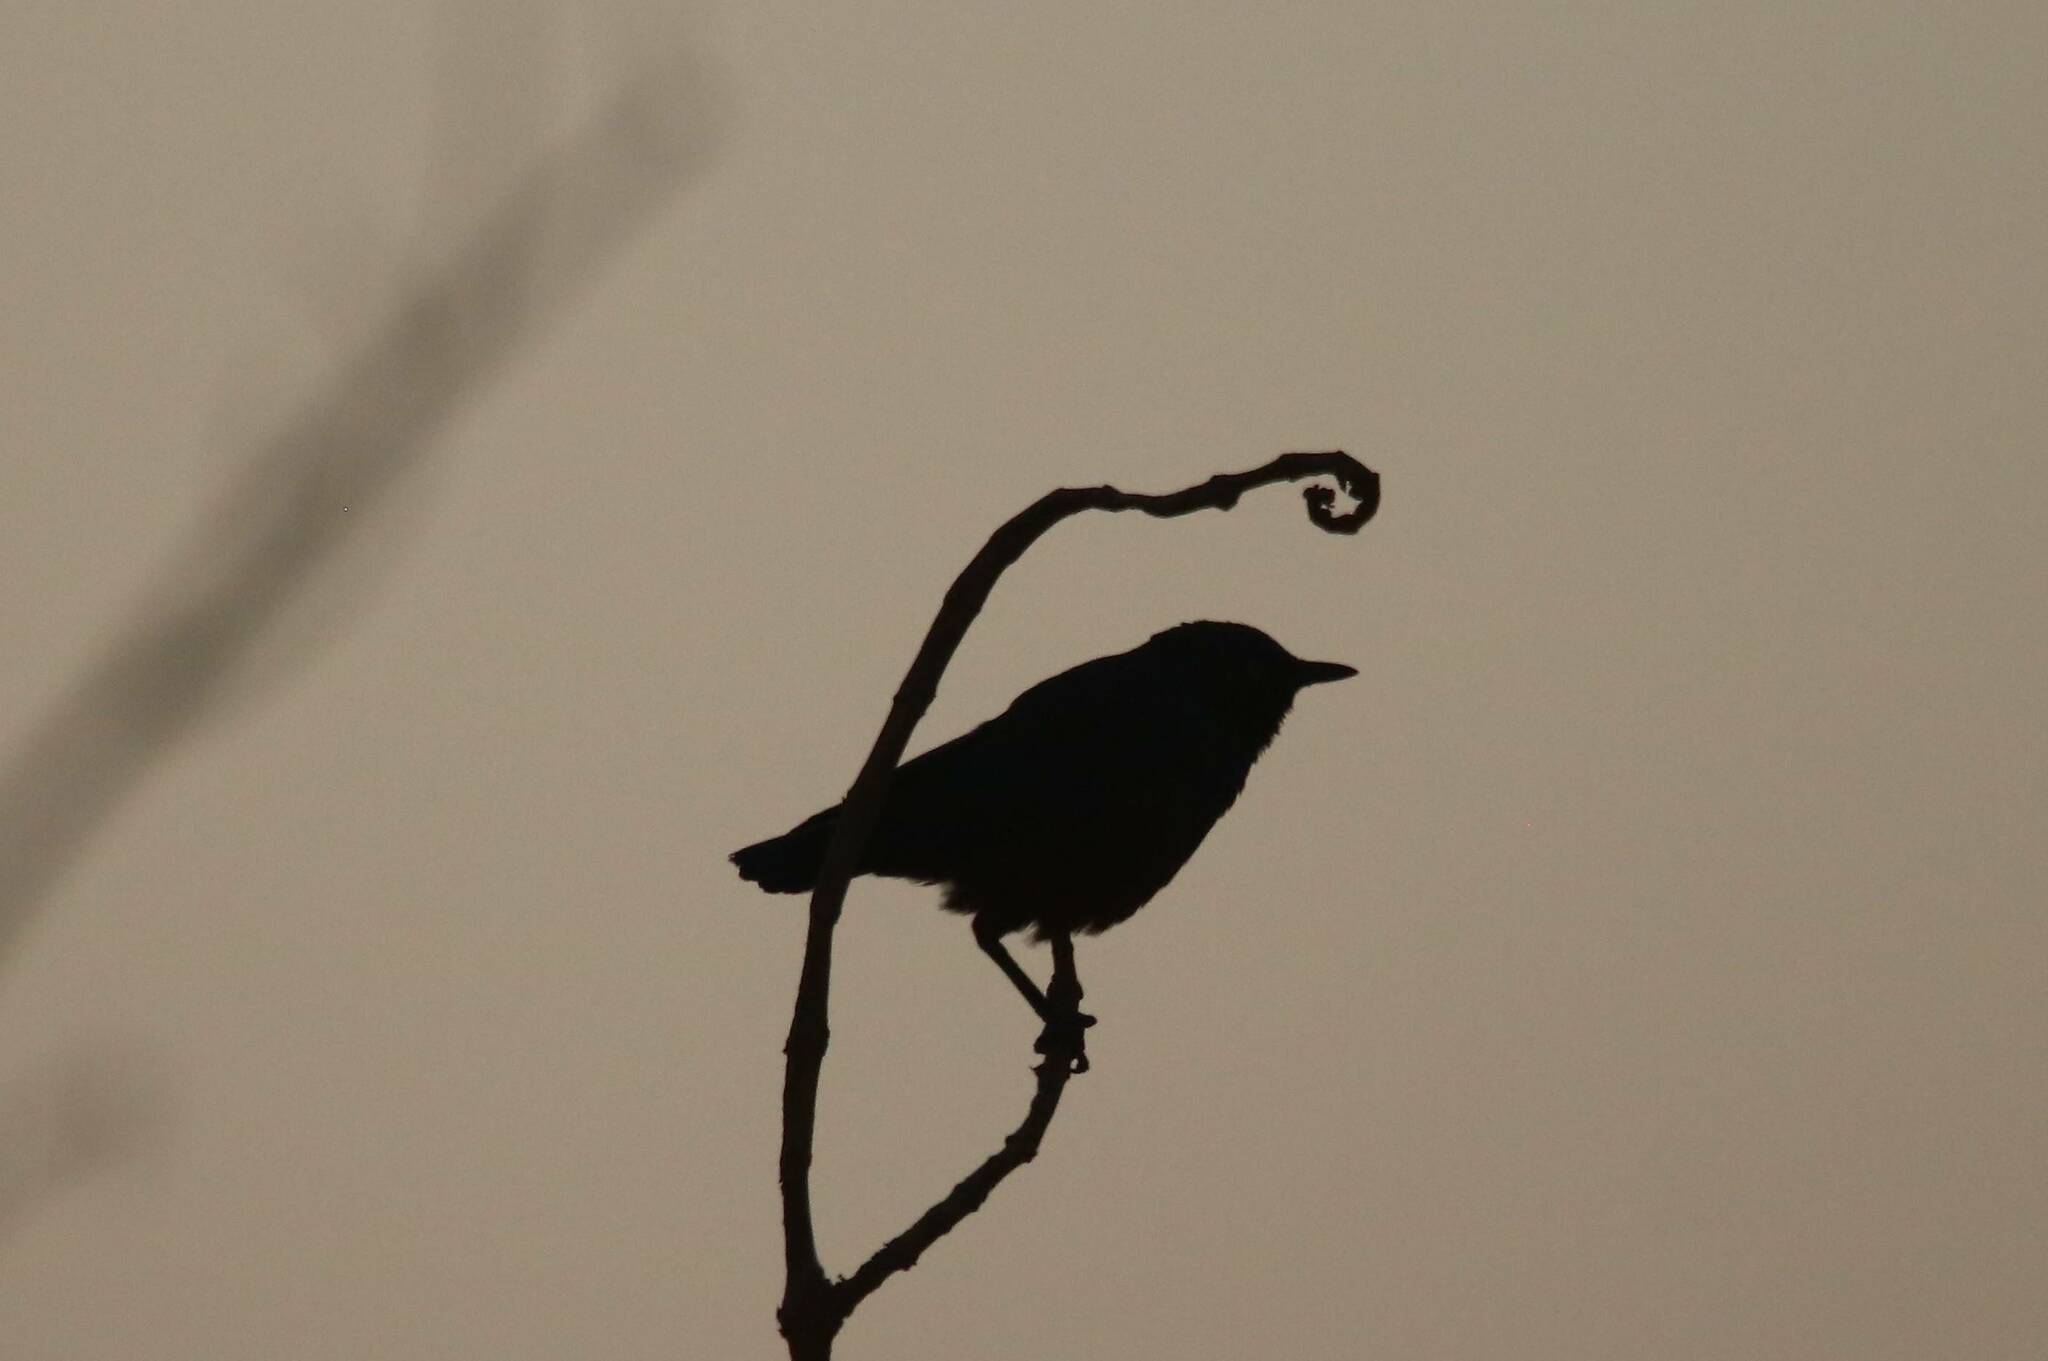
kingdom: Animalia
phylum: Chordata
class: Aves
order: Passeriformes
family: Sturnidae
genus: Lamprotornis
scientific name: Lamprotornis pulcher
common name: Chestnut-bellied starling
